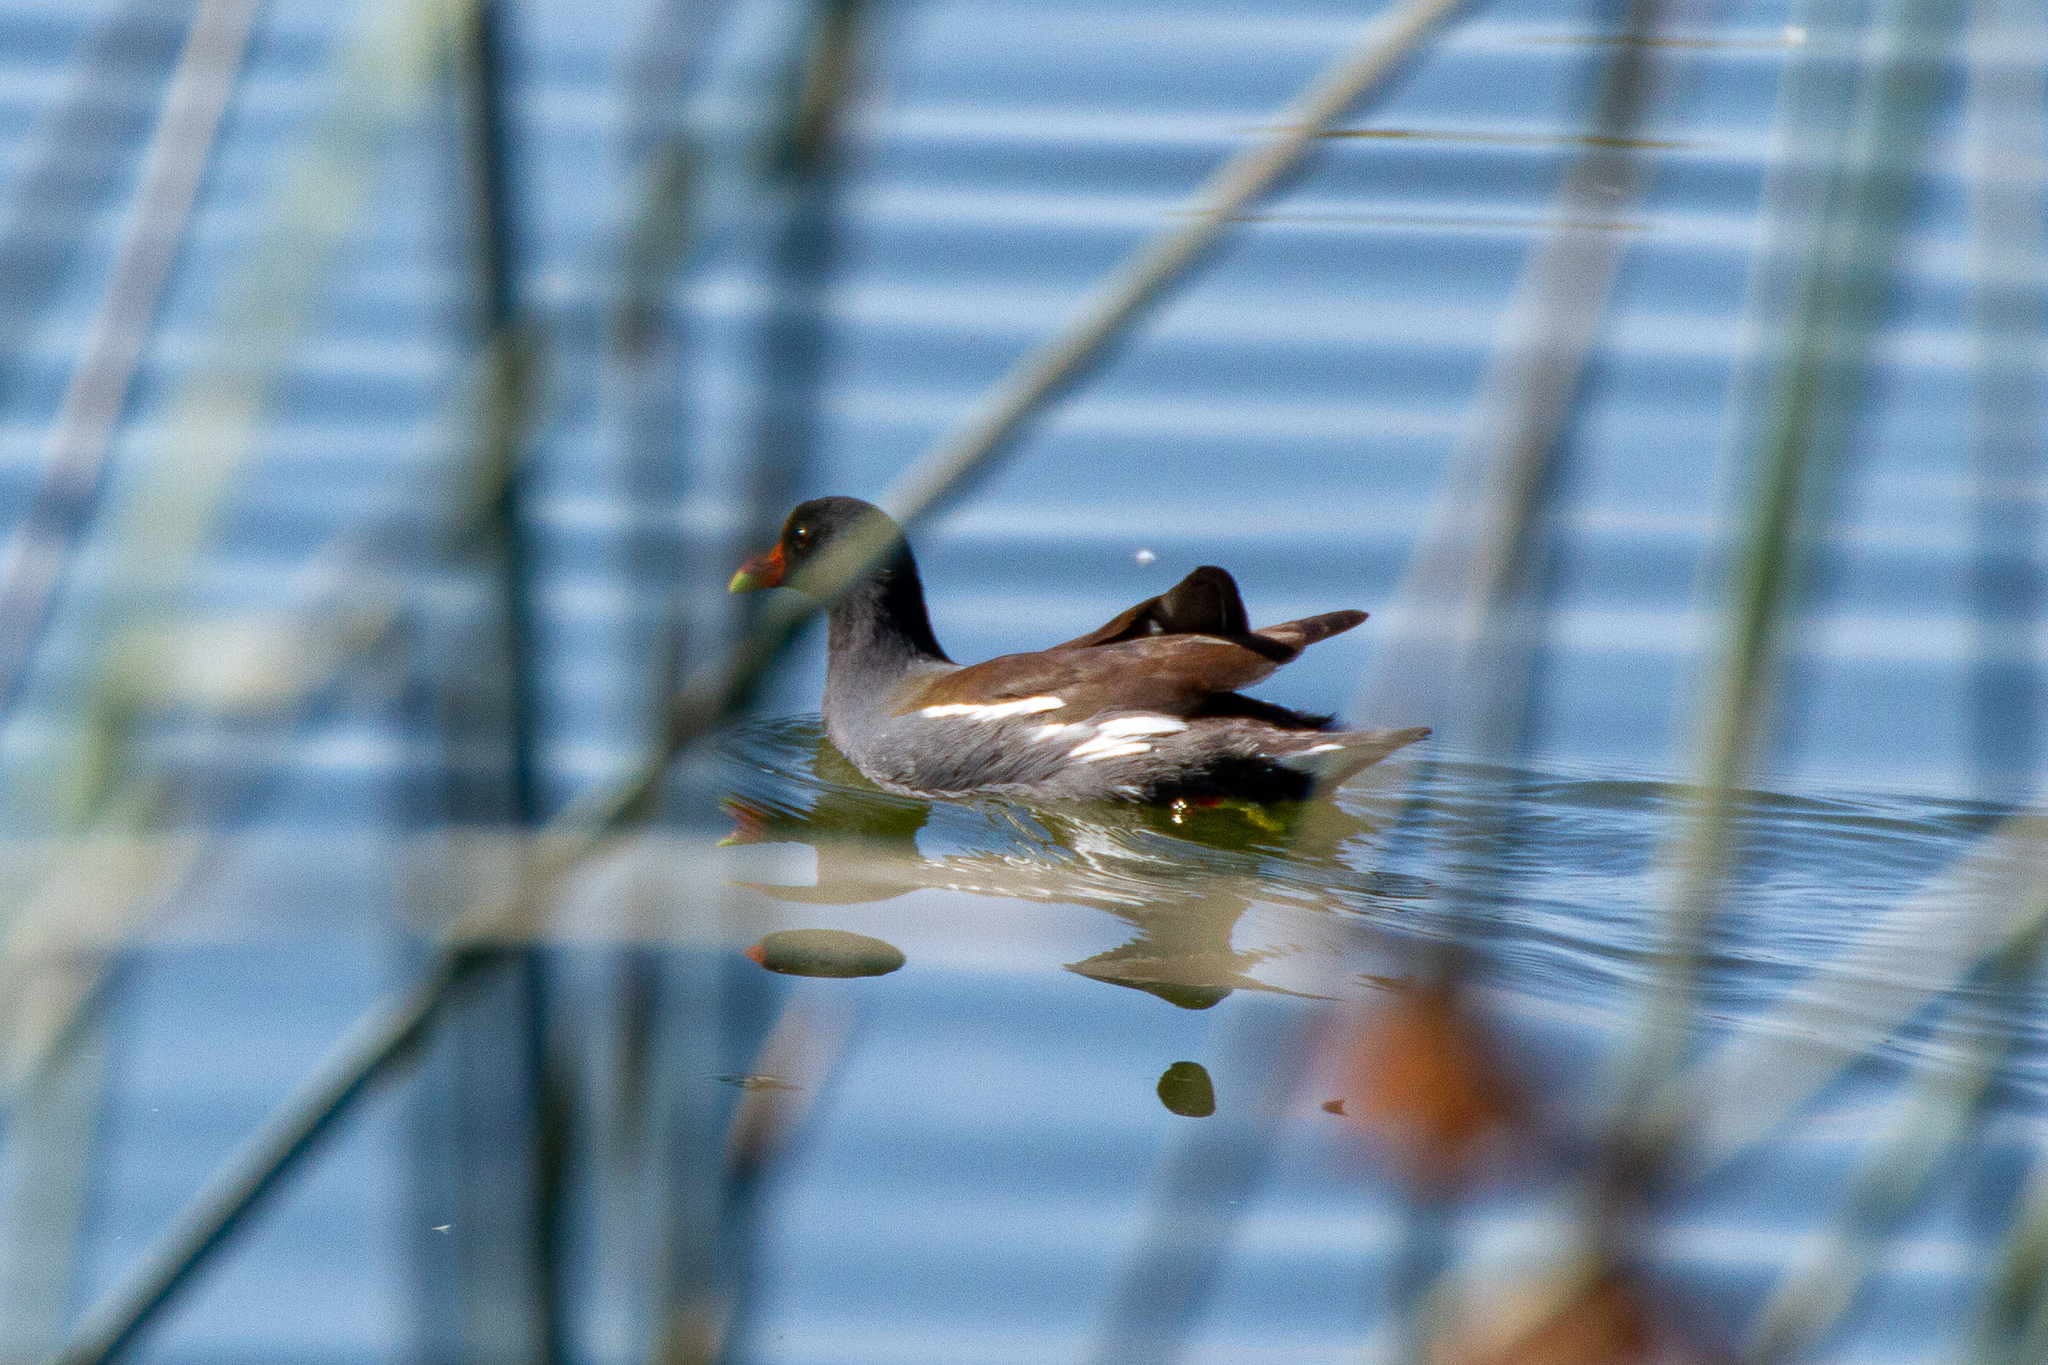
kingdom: Animalia
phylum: Chordata
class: Aves
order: Gruiformes
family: Rallidae
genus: Gallinula
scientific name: Gallinula chloropus
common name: Common moorhen
